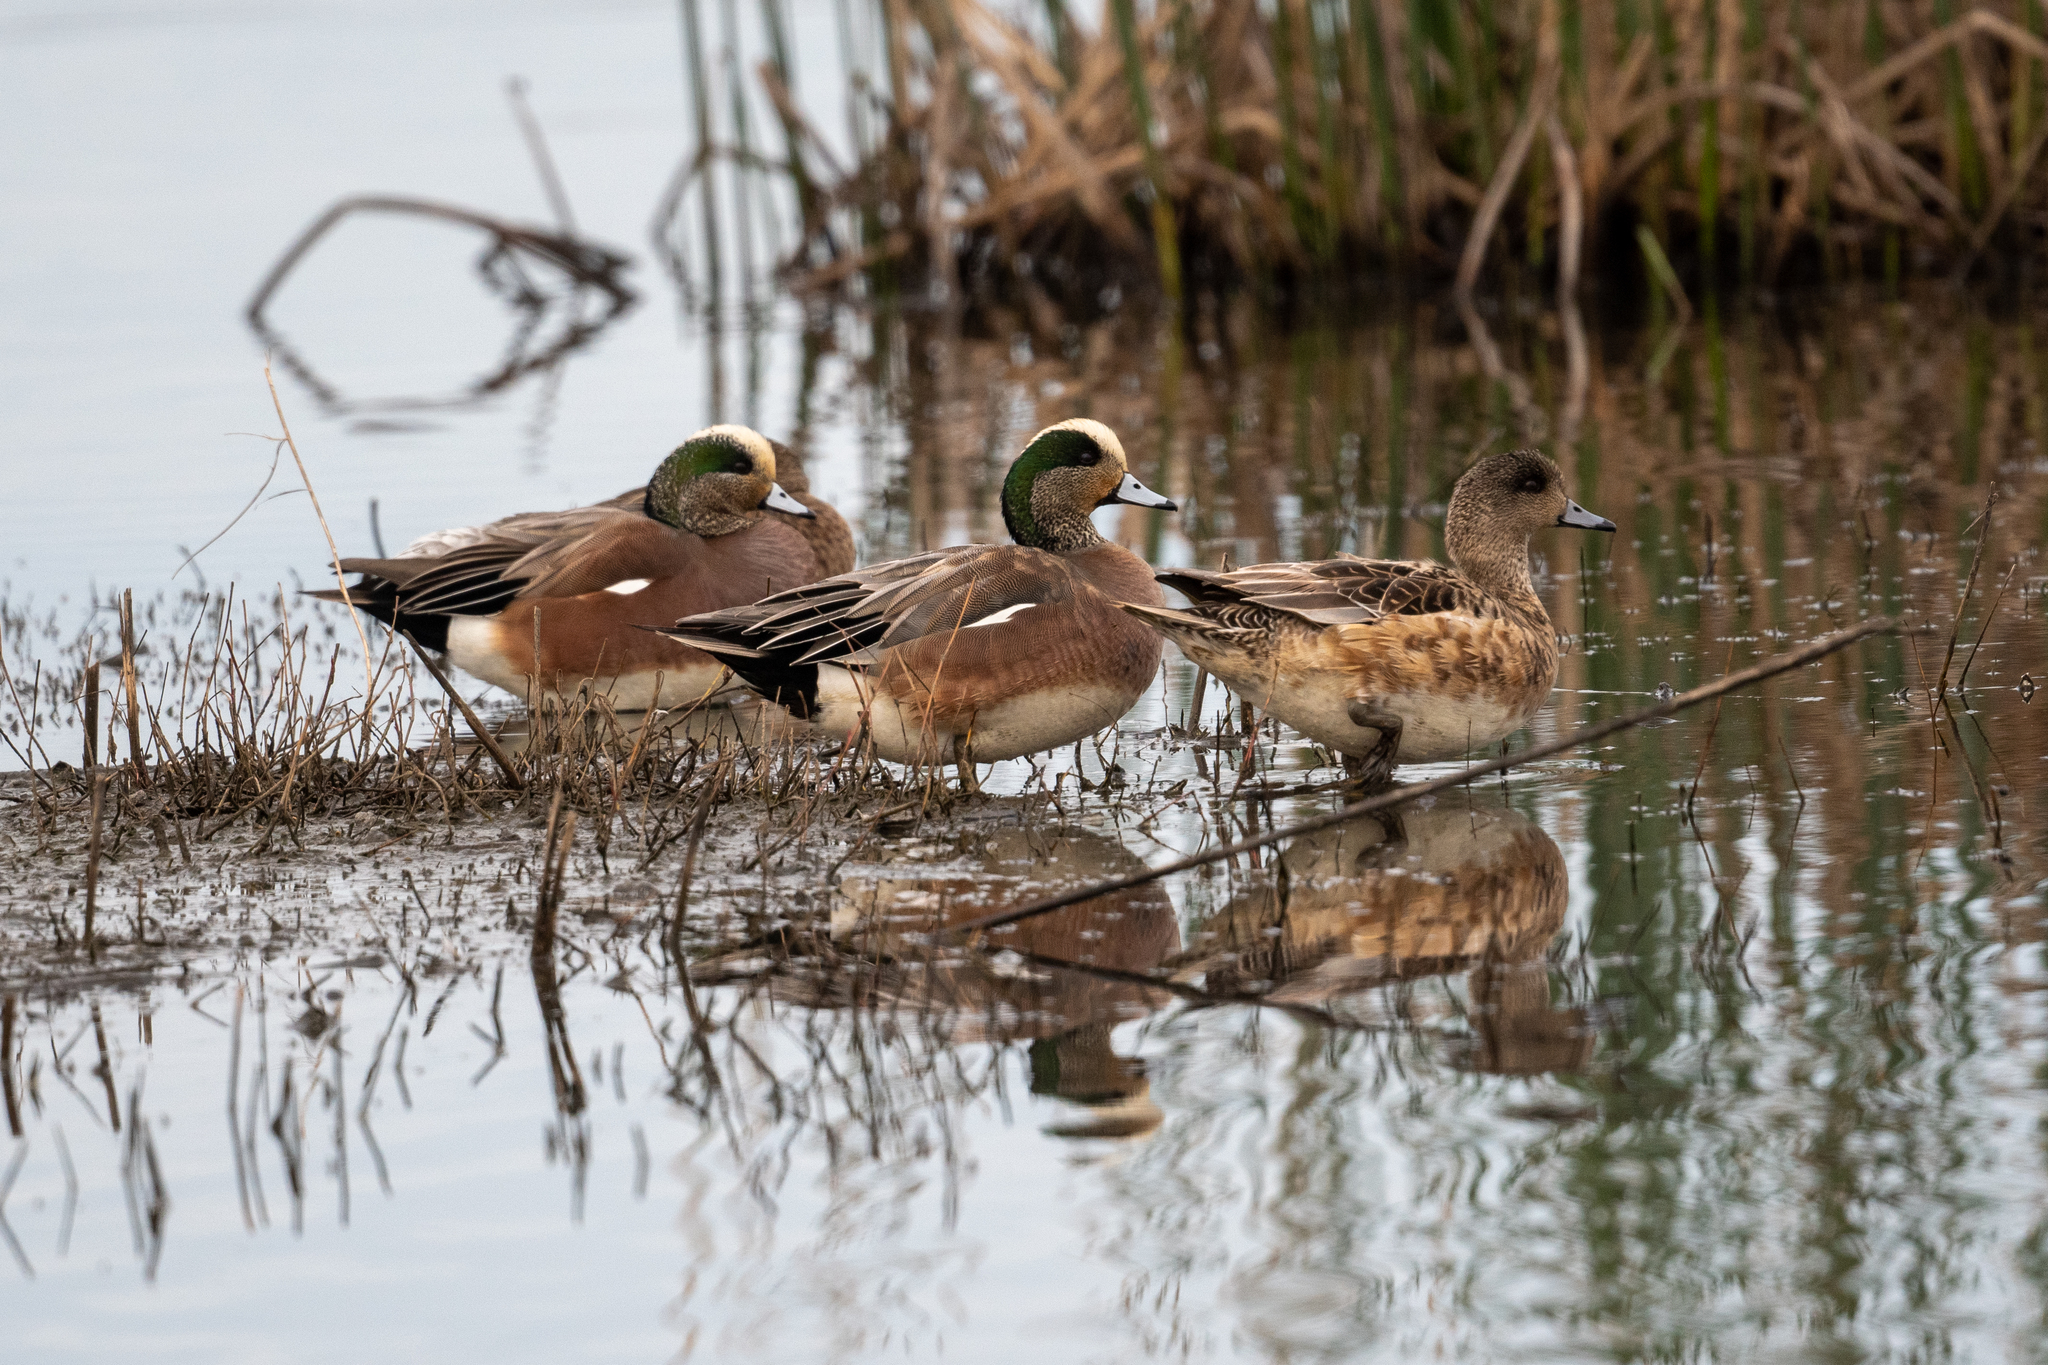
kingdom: Animalia
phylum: Chordata
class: Aves
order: Anseriformes
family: Anatidae
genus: Mareca
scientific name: Mareca americana
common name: American wigeon
